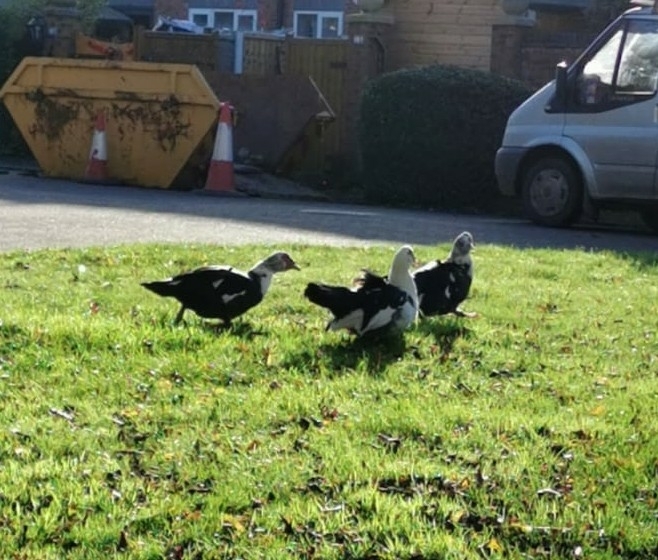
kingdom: Animalia
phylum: Chordata
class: Aves
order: Anseriformes
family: Anatidae
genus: Cairina
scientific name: Cairina moschata
